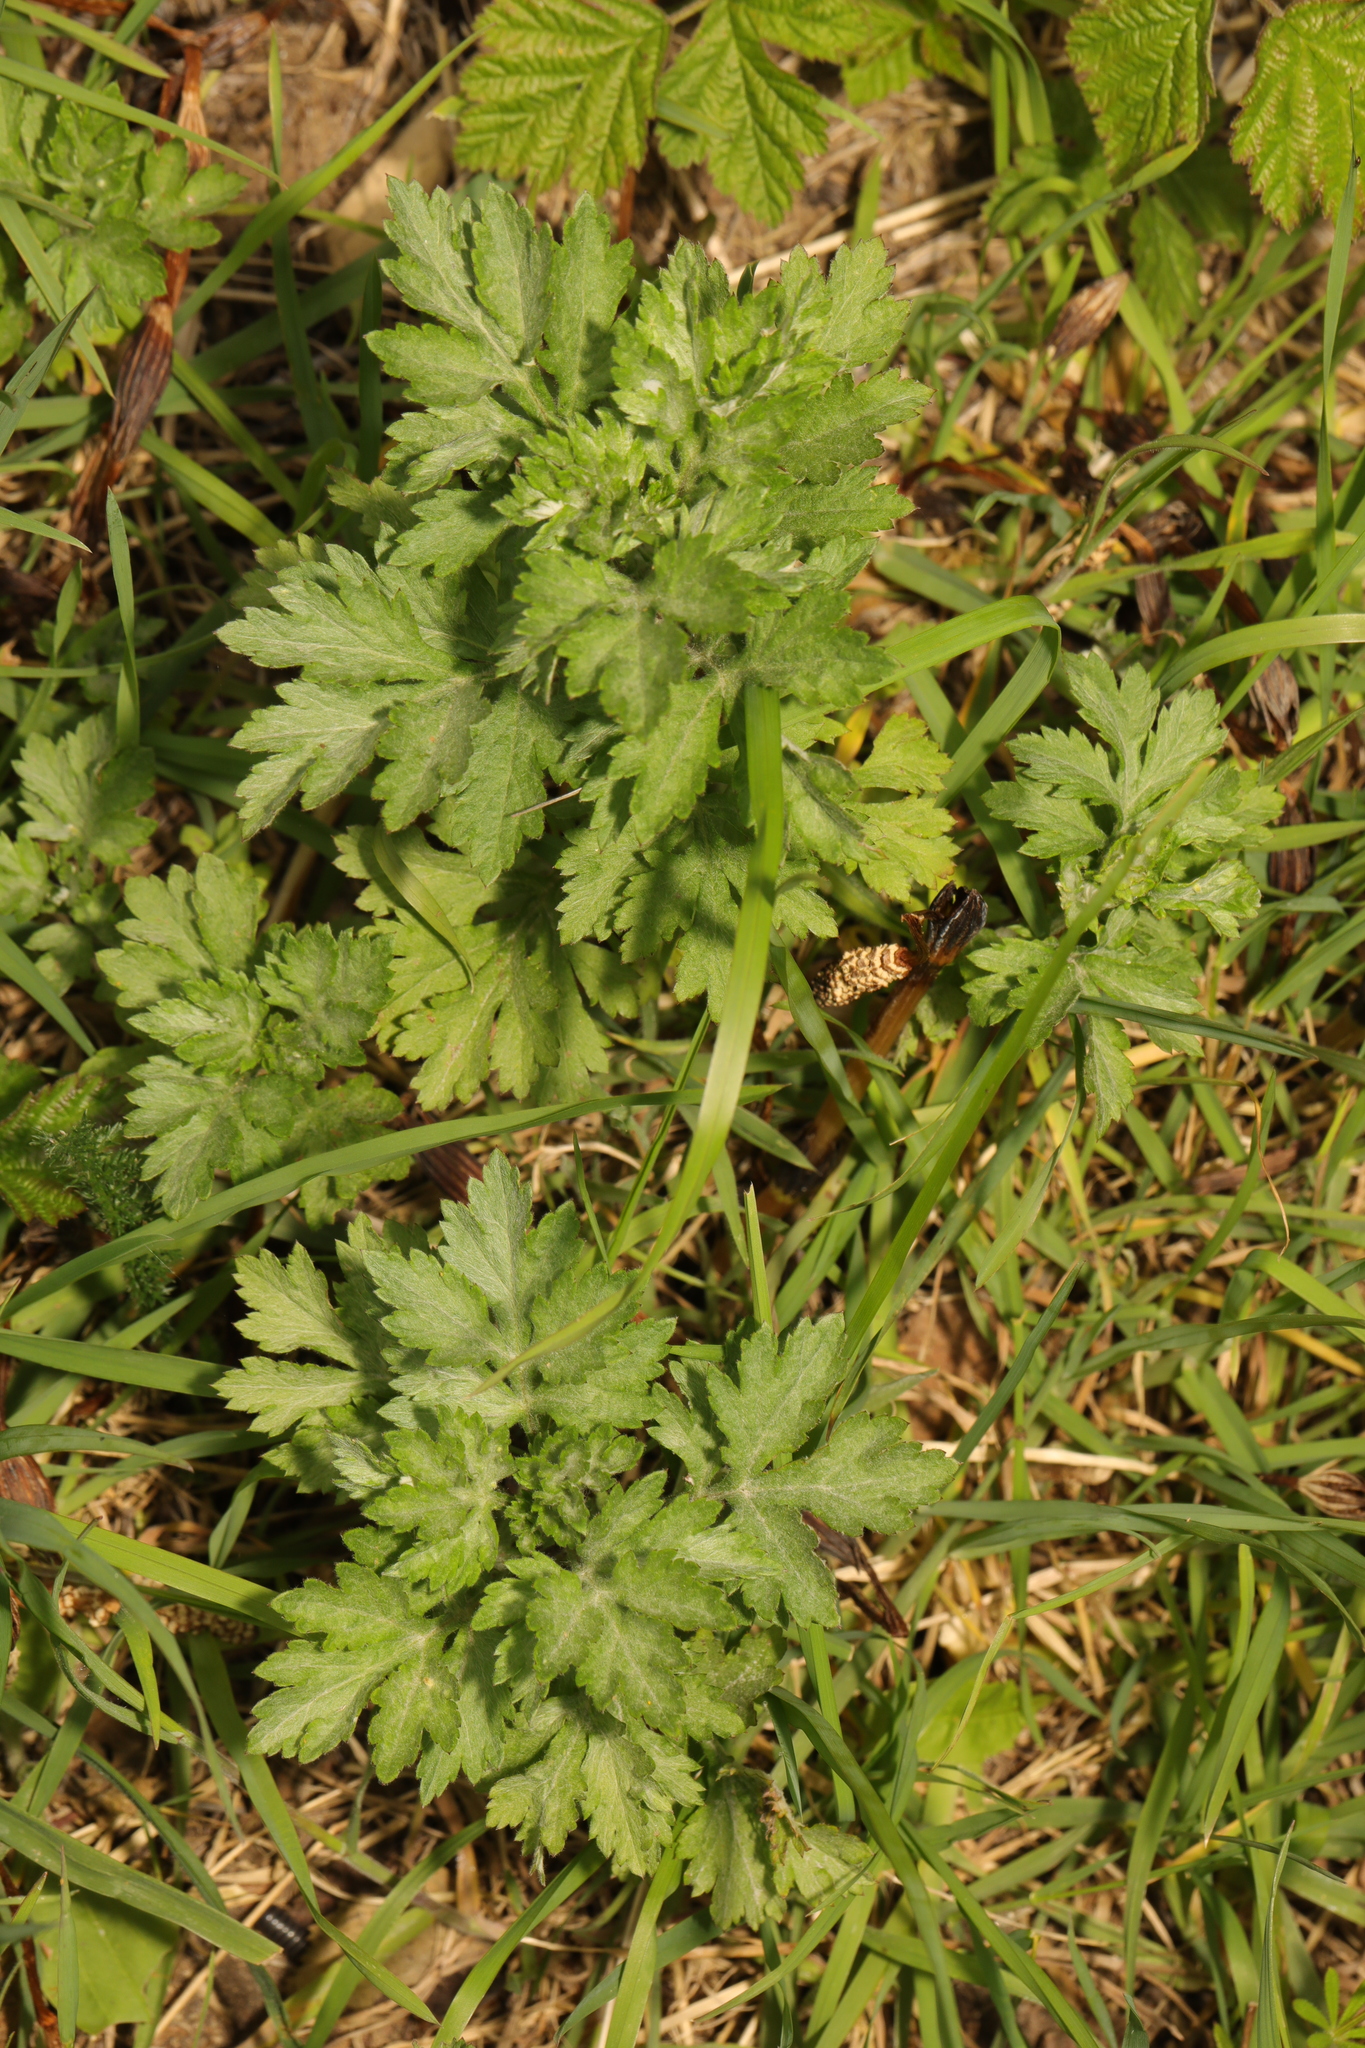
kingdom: Plantae
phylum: Tracheophyta
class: Magnoliopsida
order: Asterales
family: Asteraceae
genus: Artemisia
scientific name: Artemisia vulgaris
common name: Mugwort
